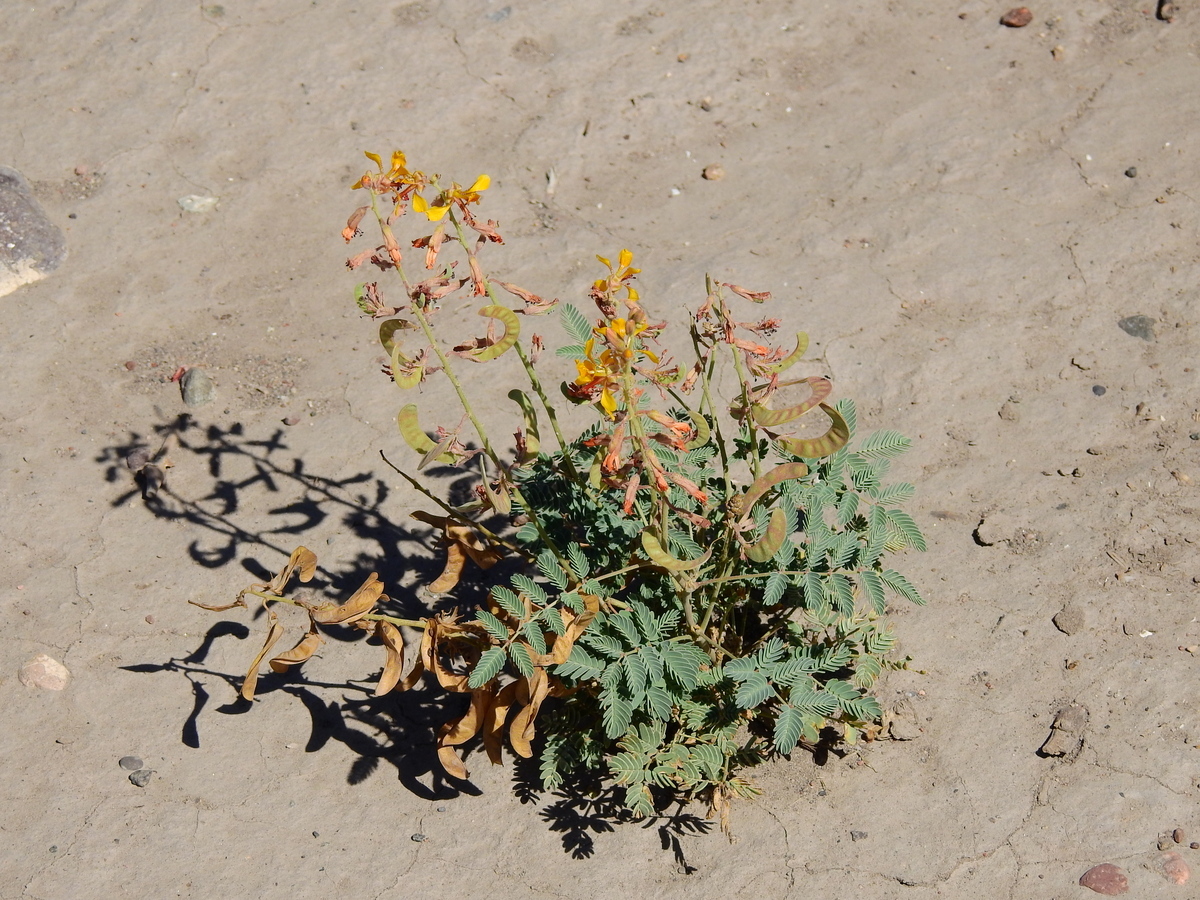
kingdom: Plantae
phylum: Tracheophyta
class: Magnoliopsida
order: Fabales
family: Fabaceae
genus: Hoffmannseggia
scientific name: Hoffmannseggia glauca
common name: Pignut
